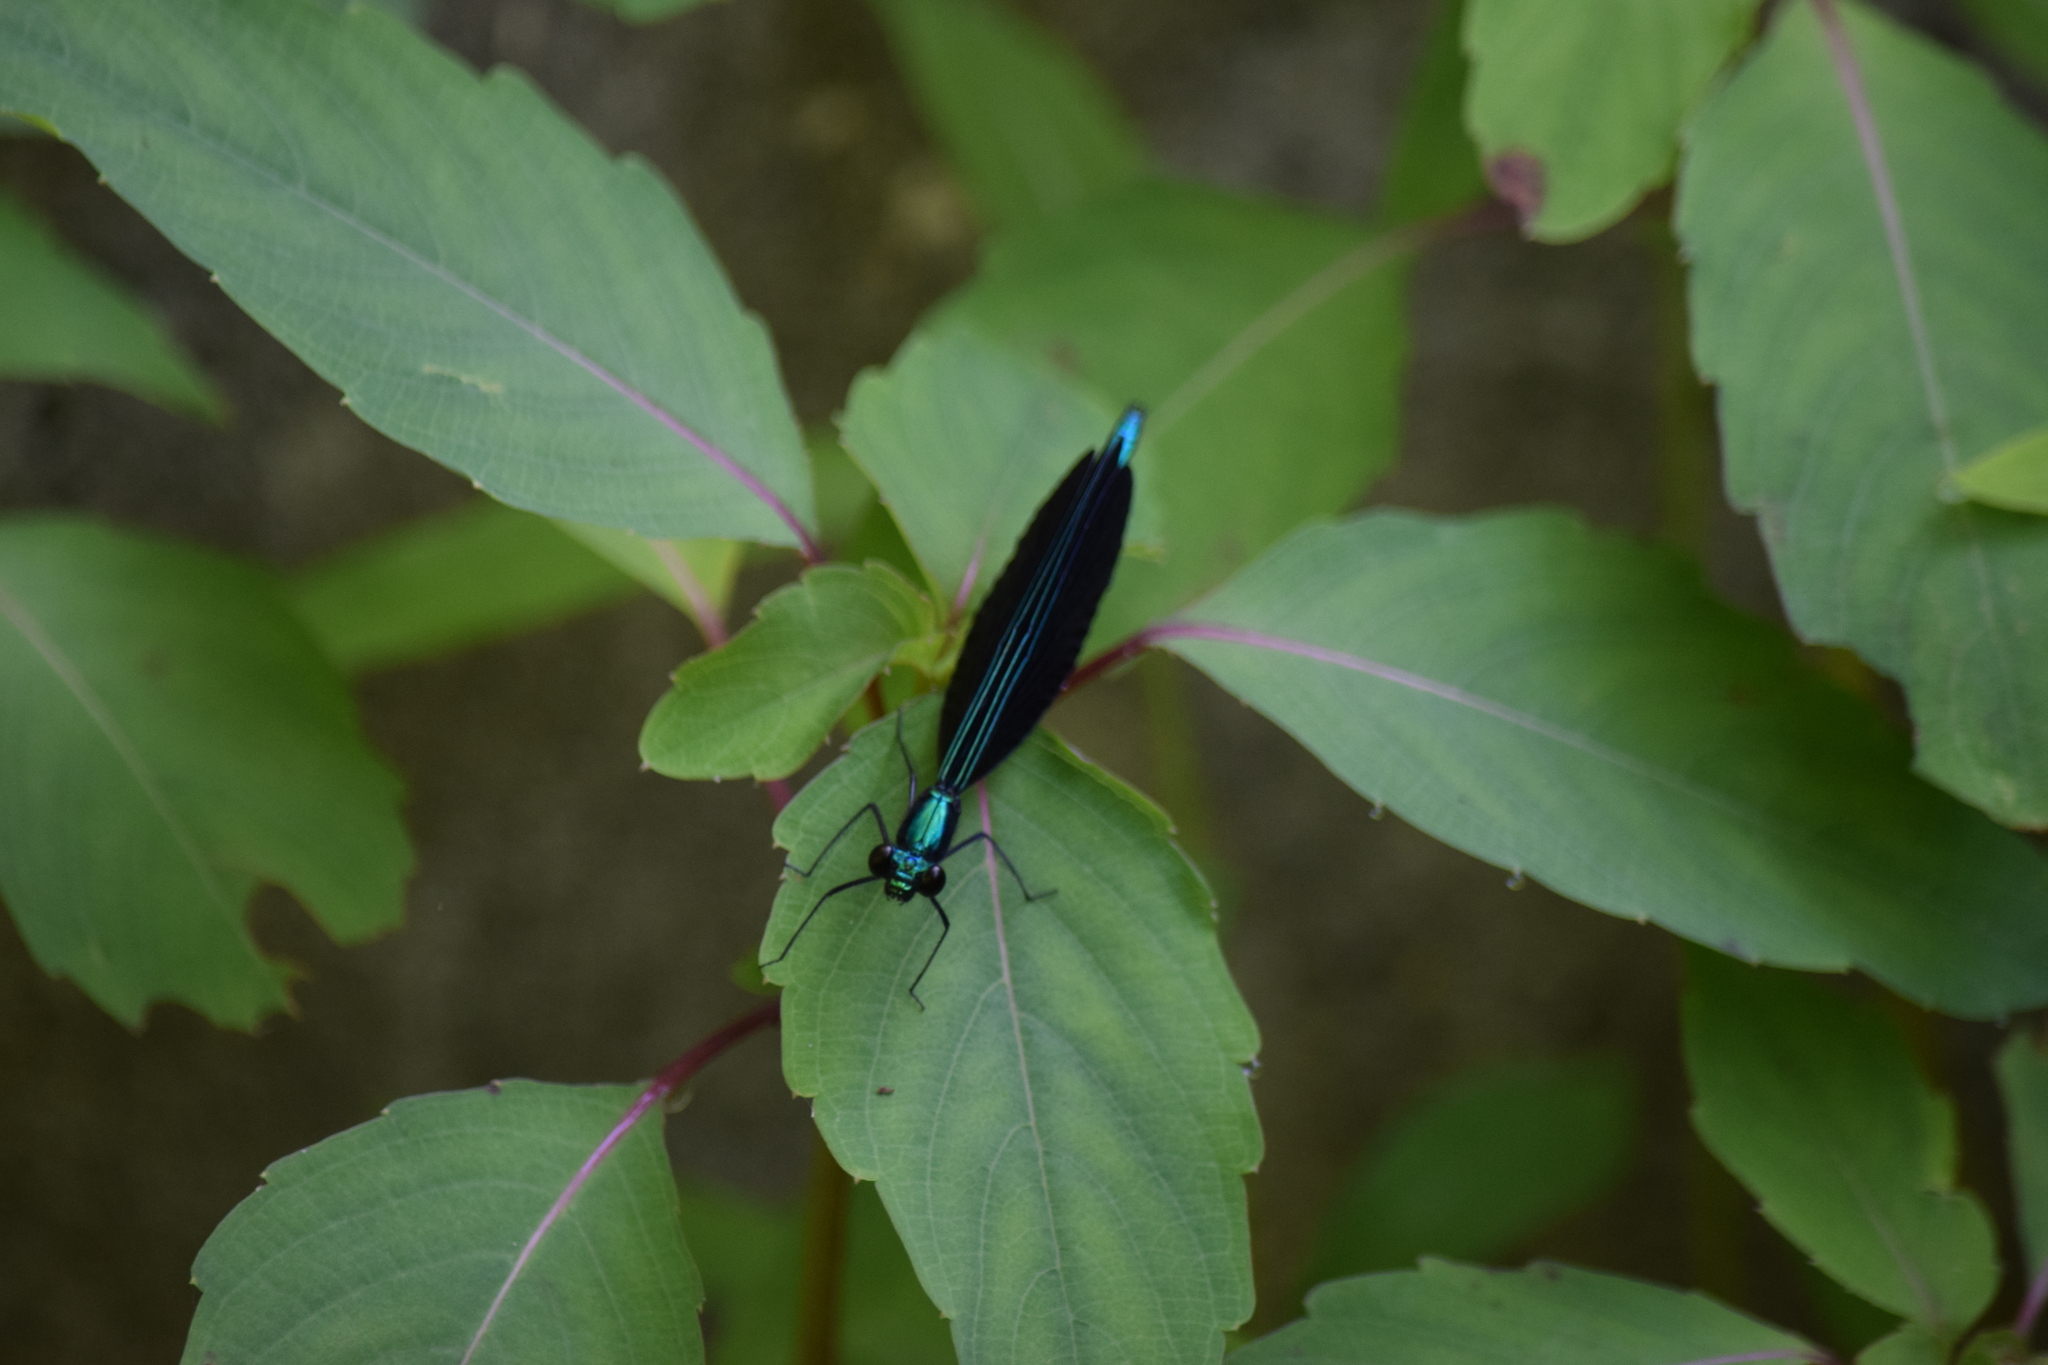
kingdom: Animalia
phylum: Arthropoda
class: Insecta
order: Odonata
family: Calopterygidae
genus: Calopteryx
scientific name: Calopteryx maculata
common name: Ebony jewelwing
